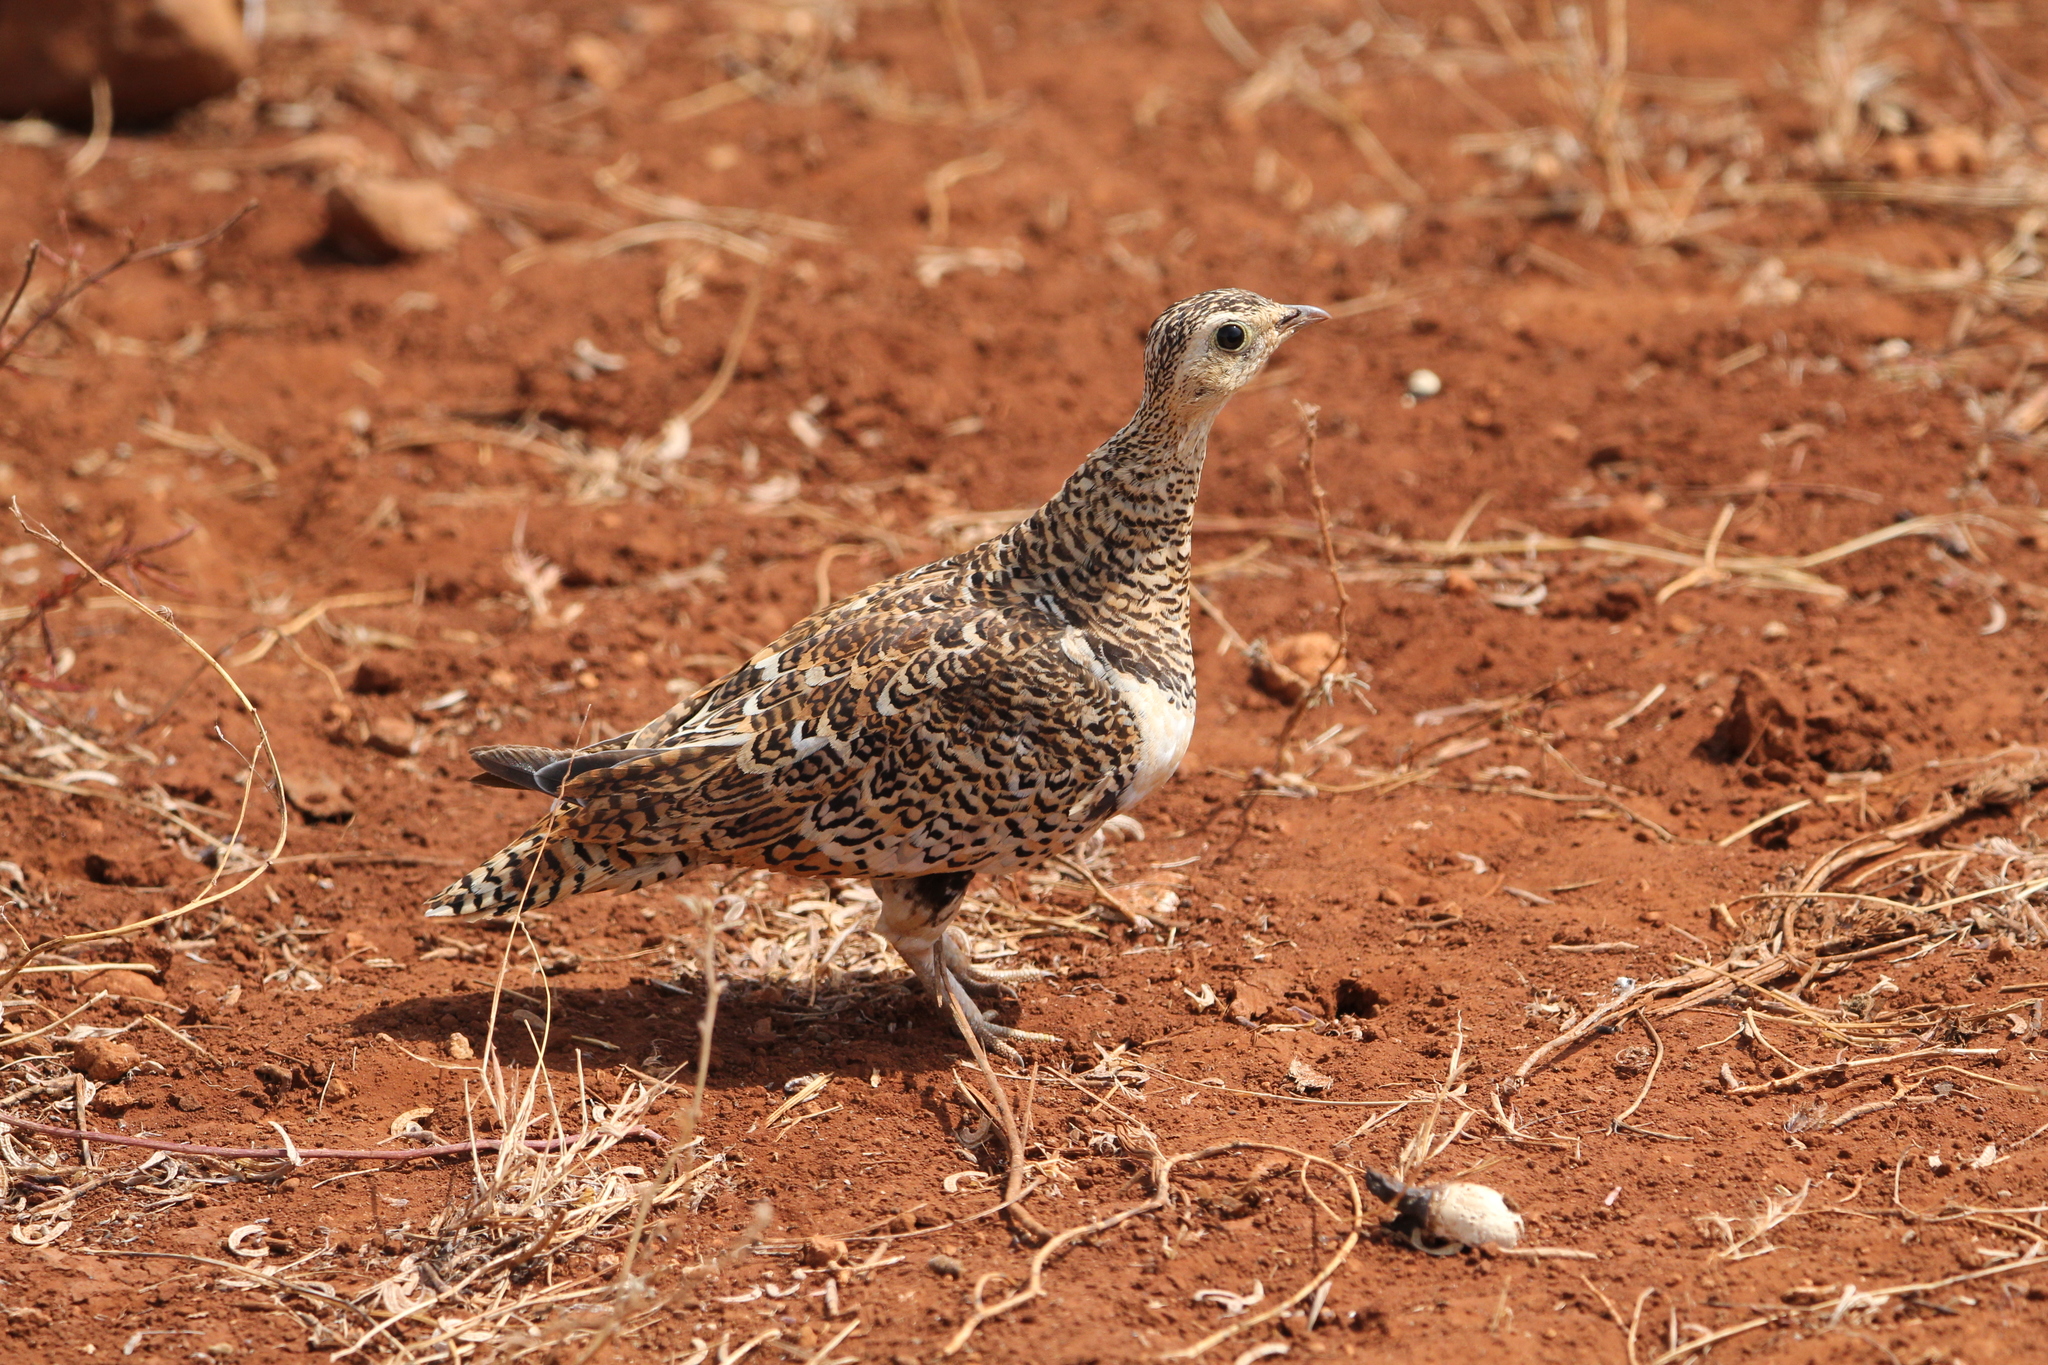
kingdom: Animalia
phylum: Chordata
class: Aves
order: Pteroclidiformes
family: Pteroclididae
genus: Pterocles
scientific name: Pterocles decoratus
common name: Black-faced sandgrouse
